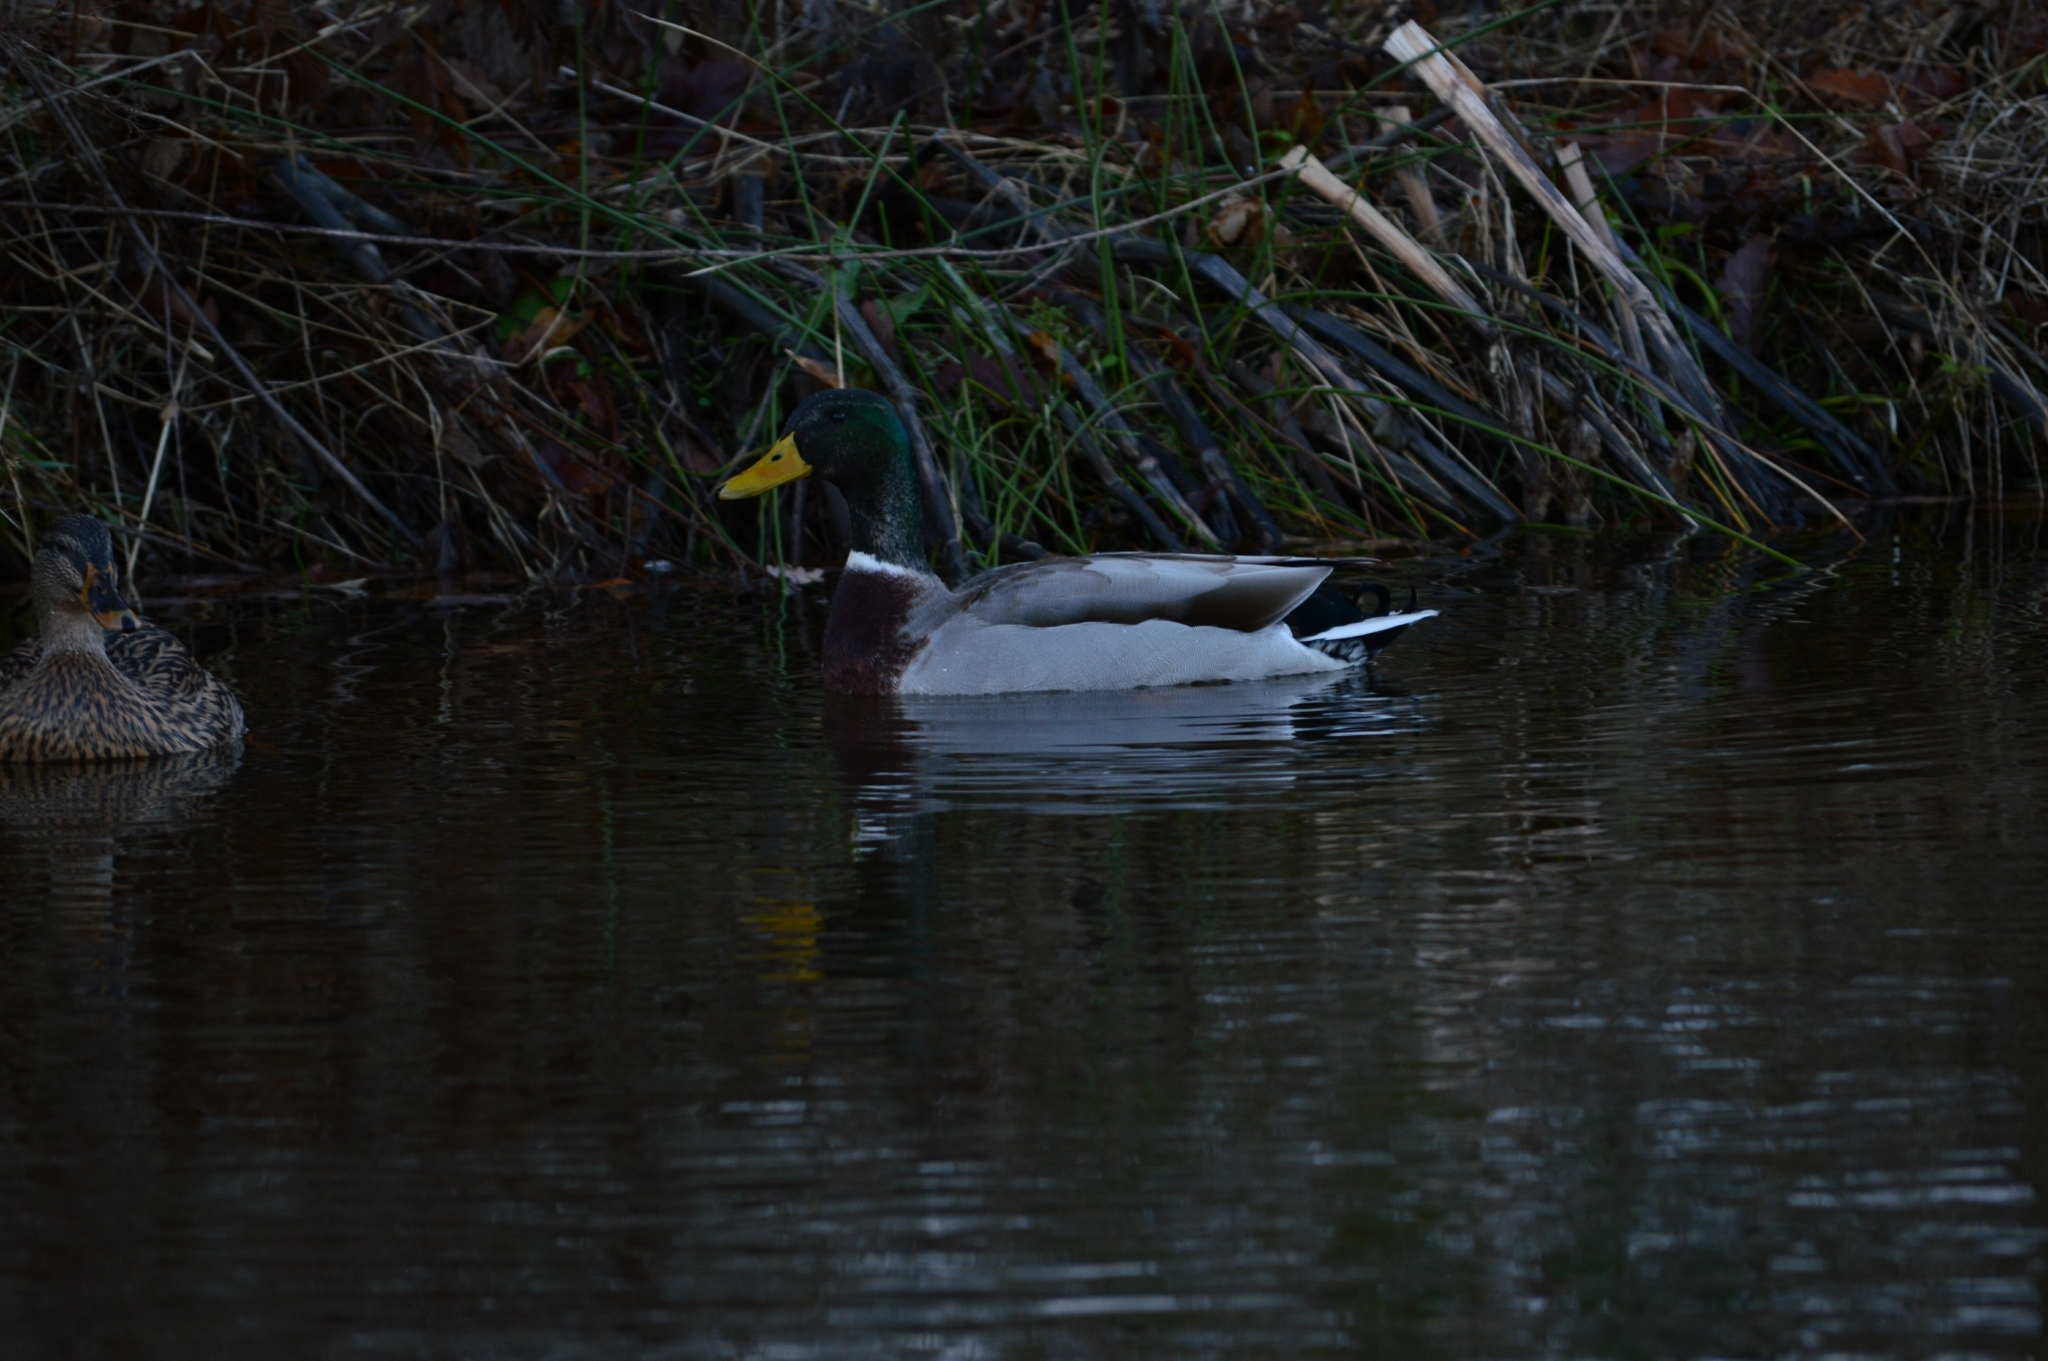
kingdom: Animalia
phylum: Chordata
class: Aves
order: Anseriformes
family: Anatidae
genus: Anas
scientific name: Anas platyrhynchos
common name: Mallard
